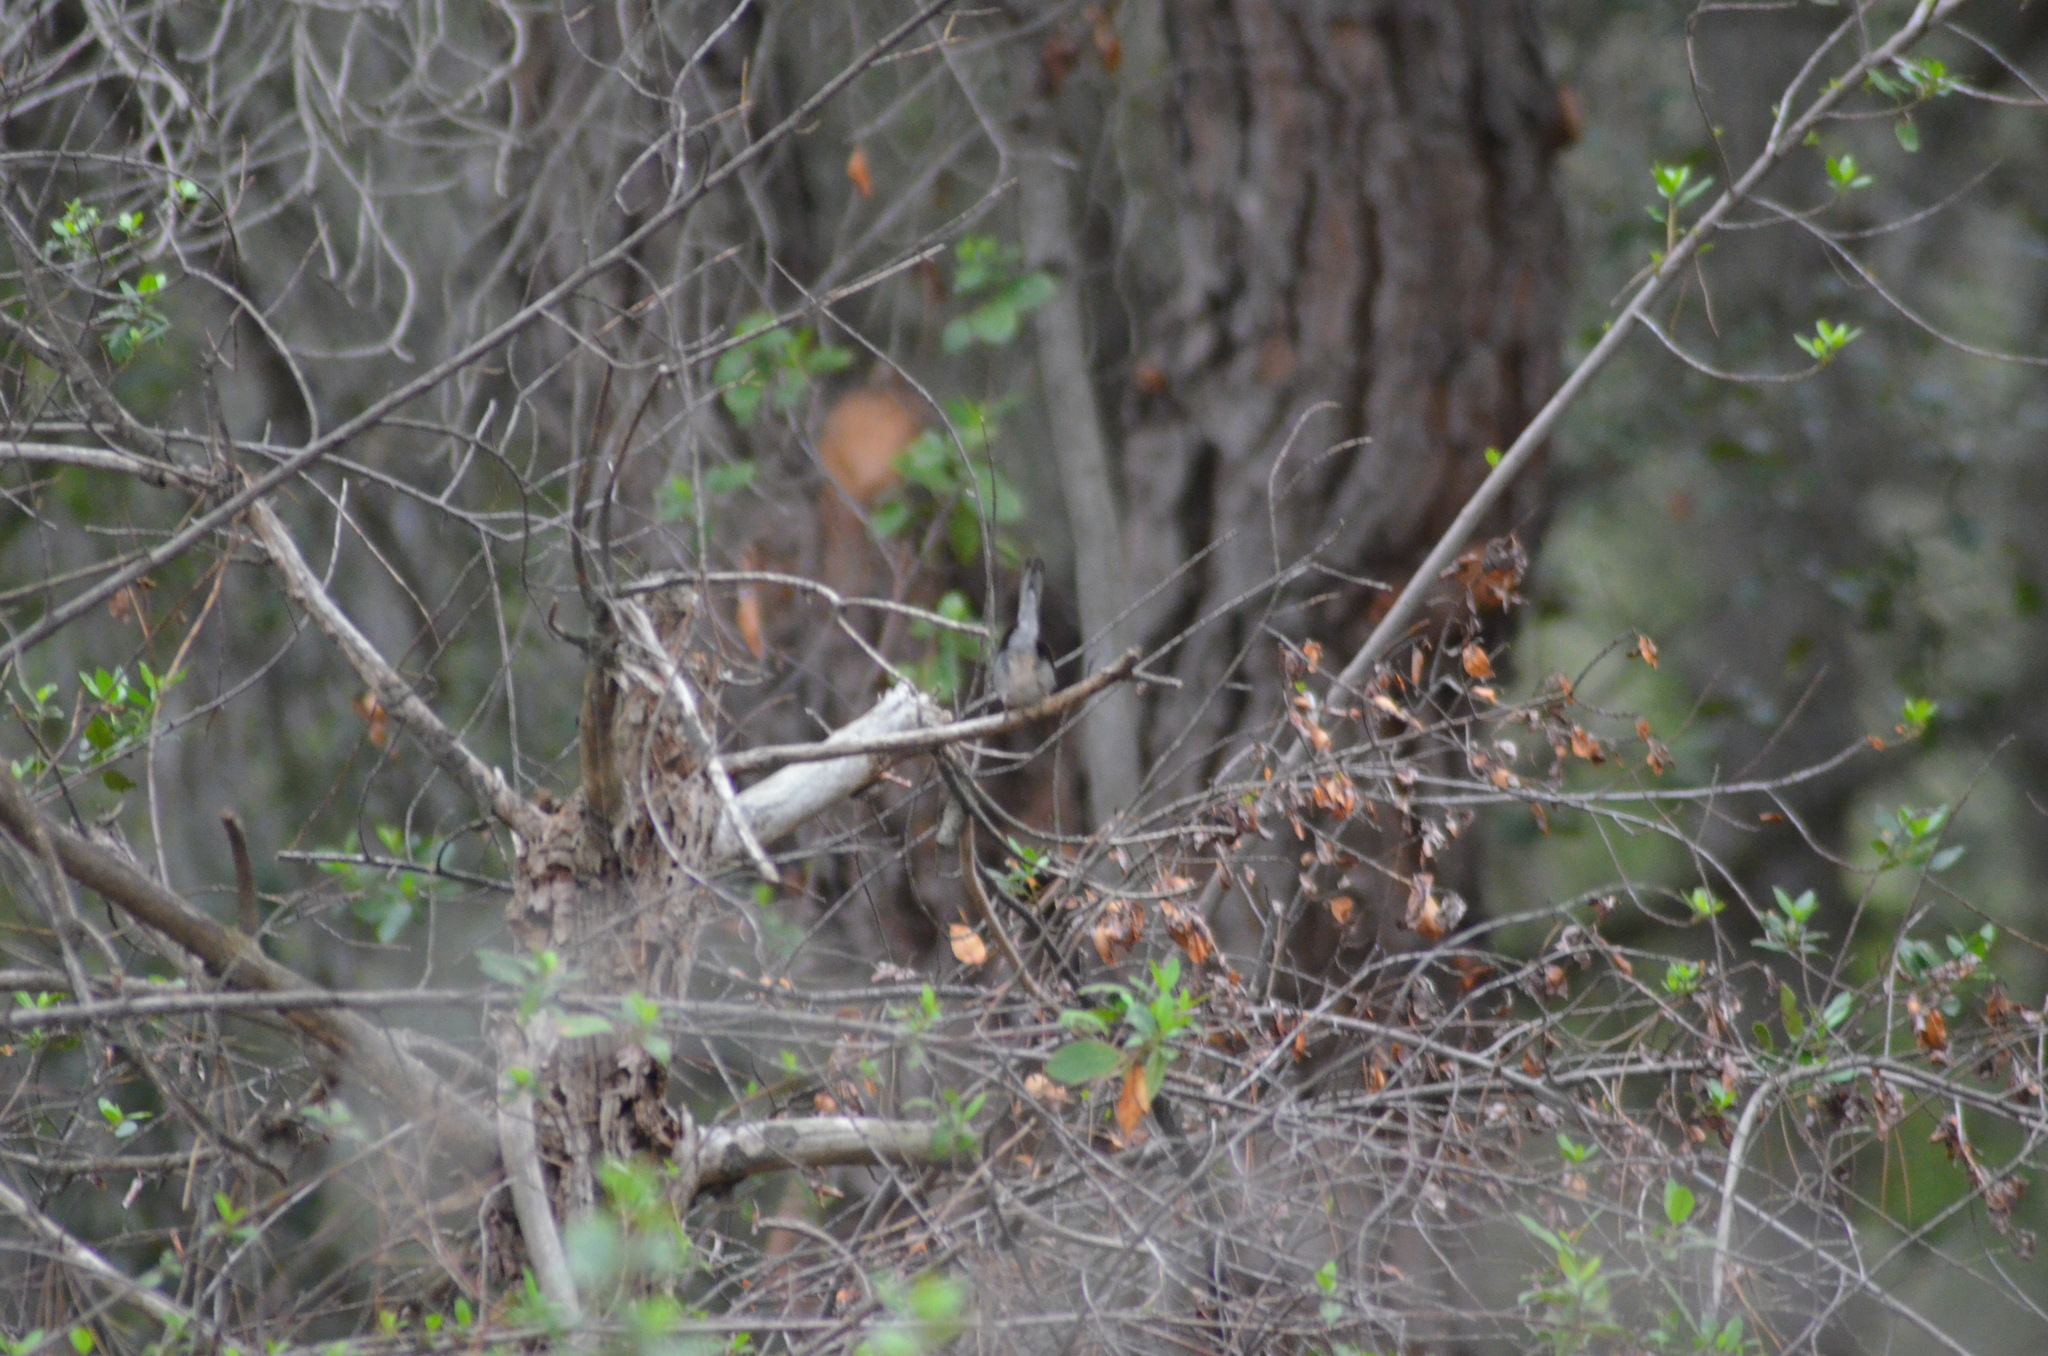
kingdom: Animalia
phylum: Chordata
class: Aves
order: Passeriformes
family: Sylviidae
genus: Curruca
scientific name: Curruca melanocephala
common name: Sardinian warbler
